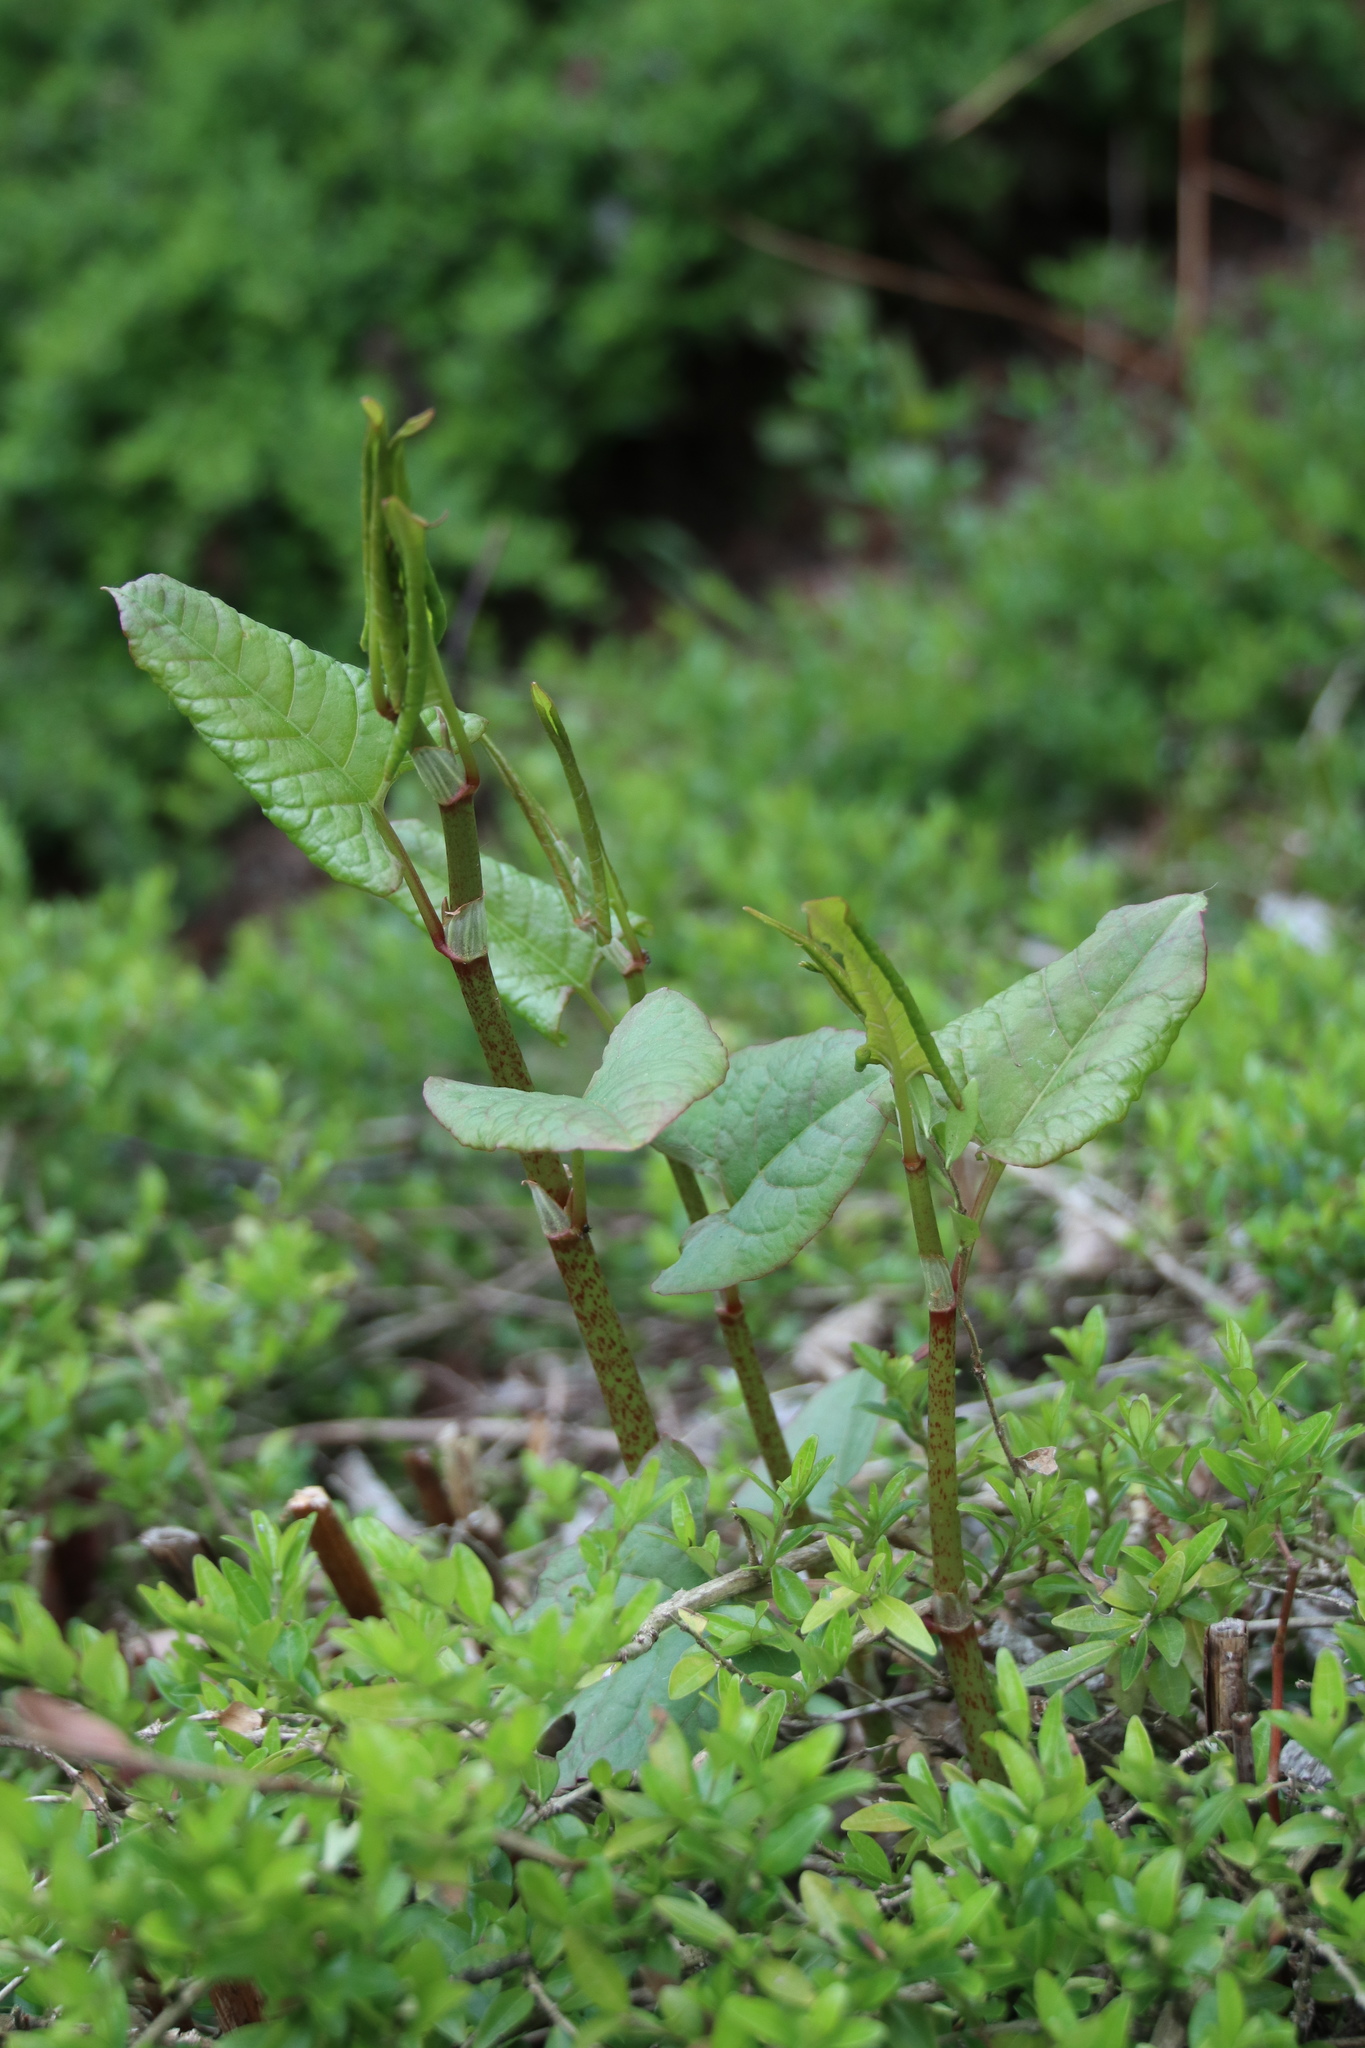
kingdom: Plantae
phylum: Tracheophyta
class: Magnoliopsida
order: Caryophyllales
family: Polygonaceae
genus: Reynoutria
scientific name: Reynoutria japonica
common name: Japanese knotweed
